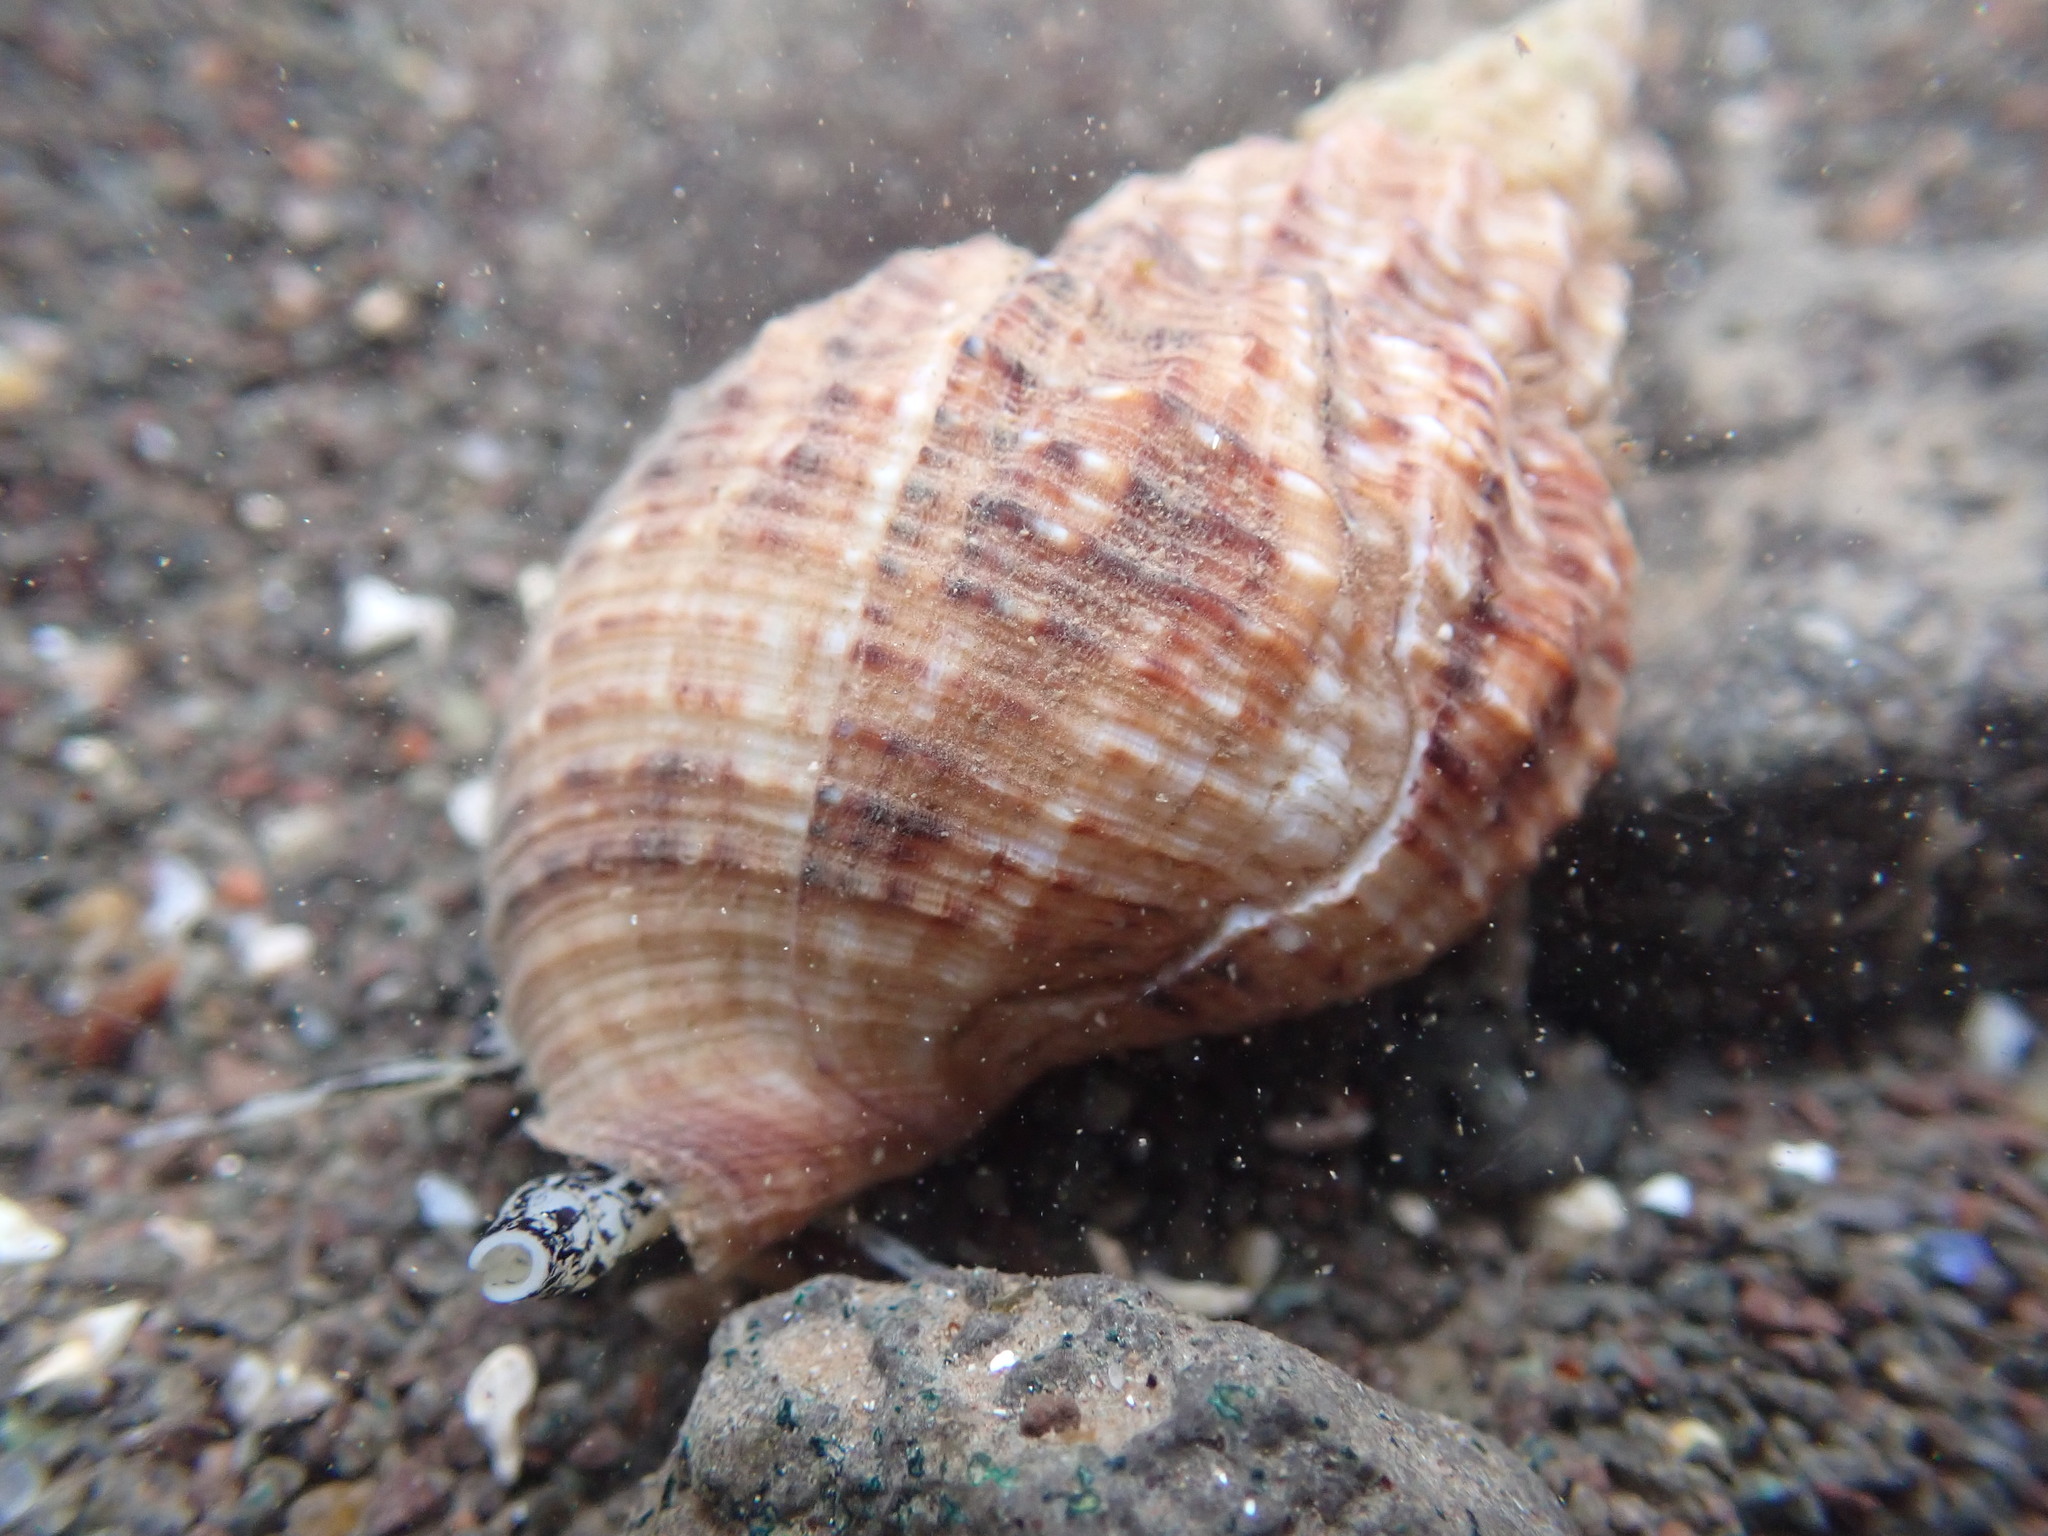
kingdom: Animalia
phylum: Mollusca
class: Gastropoda
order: Neogastropoda
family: Buccinidae
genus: Buccinum
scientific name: Buccinum undatum
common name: Common whelk
